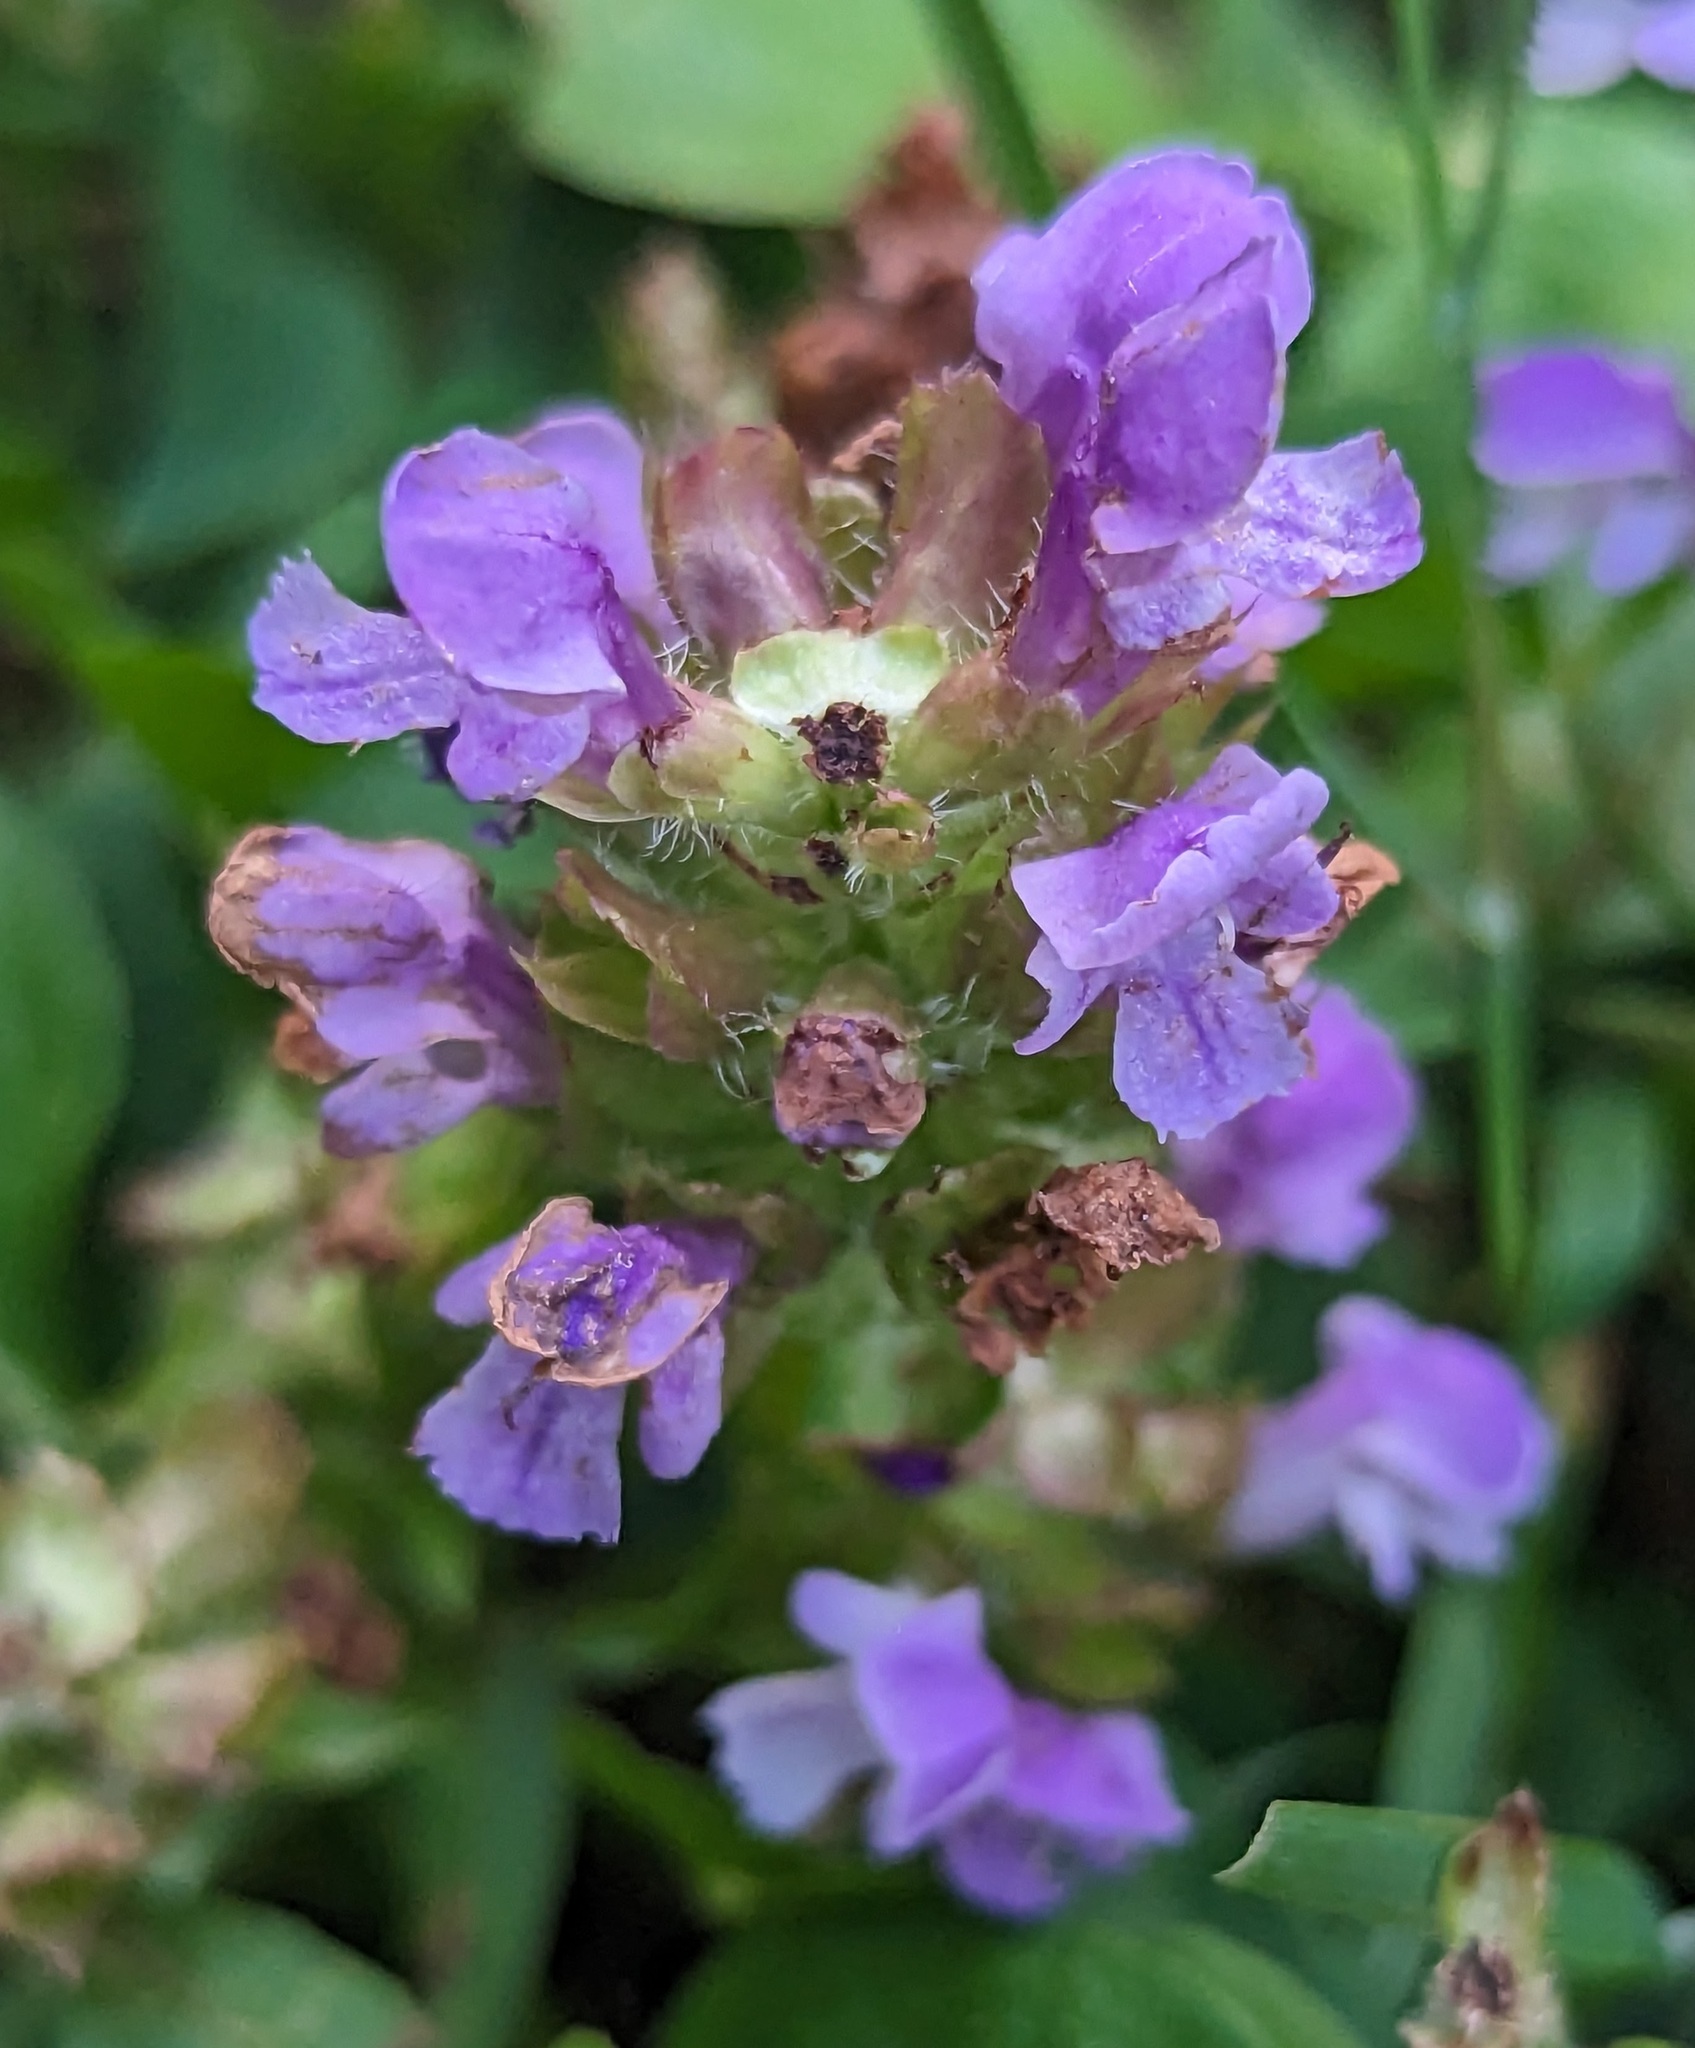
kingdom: Plantae
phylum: Tracheophyta
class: Magnoliopsida
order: Lamiales
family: Lamiaceae
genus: Prunella
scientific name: Prunella vulgaris
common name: Heal-all
